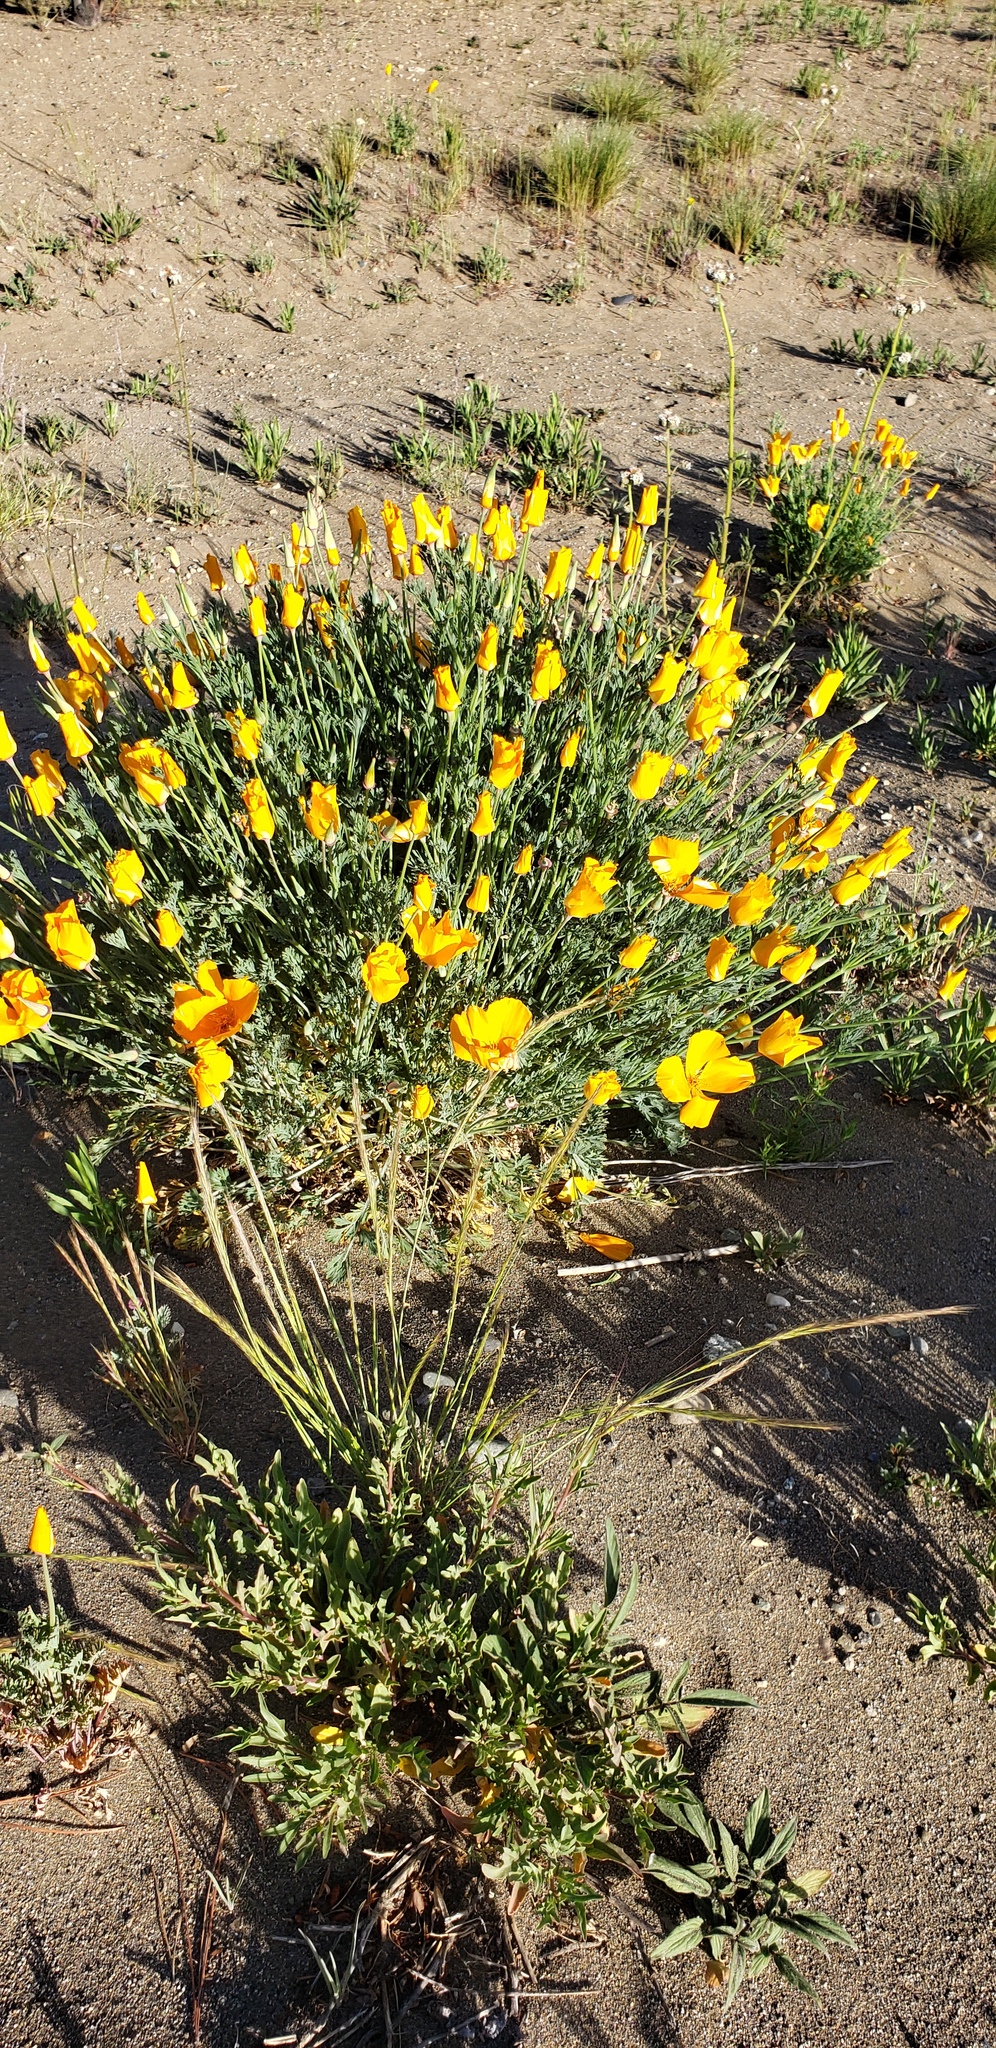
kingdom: Plantae
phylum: Tracheophyta
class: Magnoliopsida
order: Ranunculales
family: Papaveraceae
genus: Eschscholzia
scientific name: Eschscholzia californica
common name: California poppy
